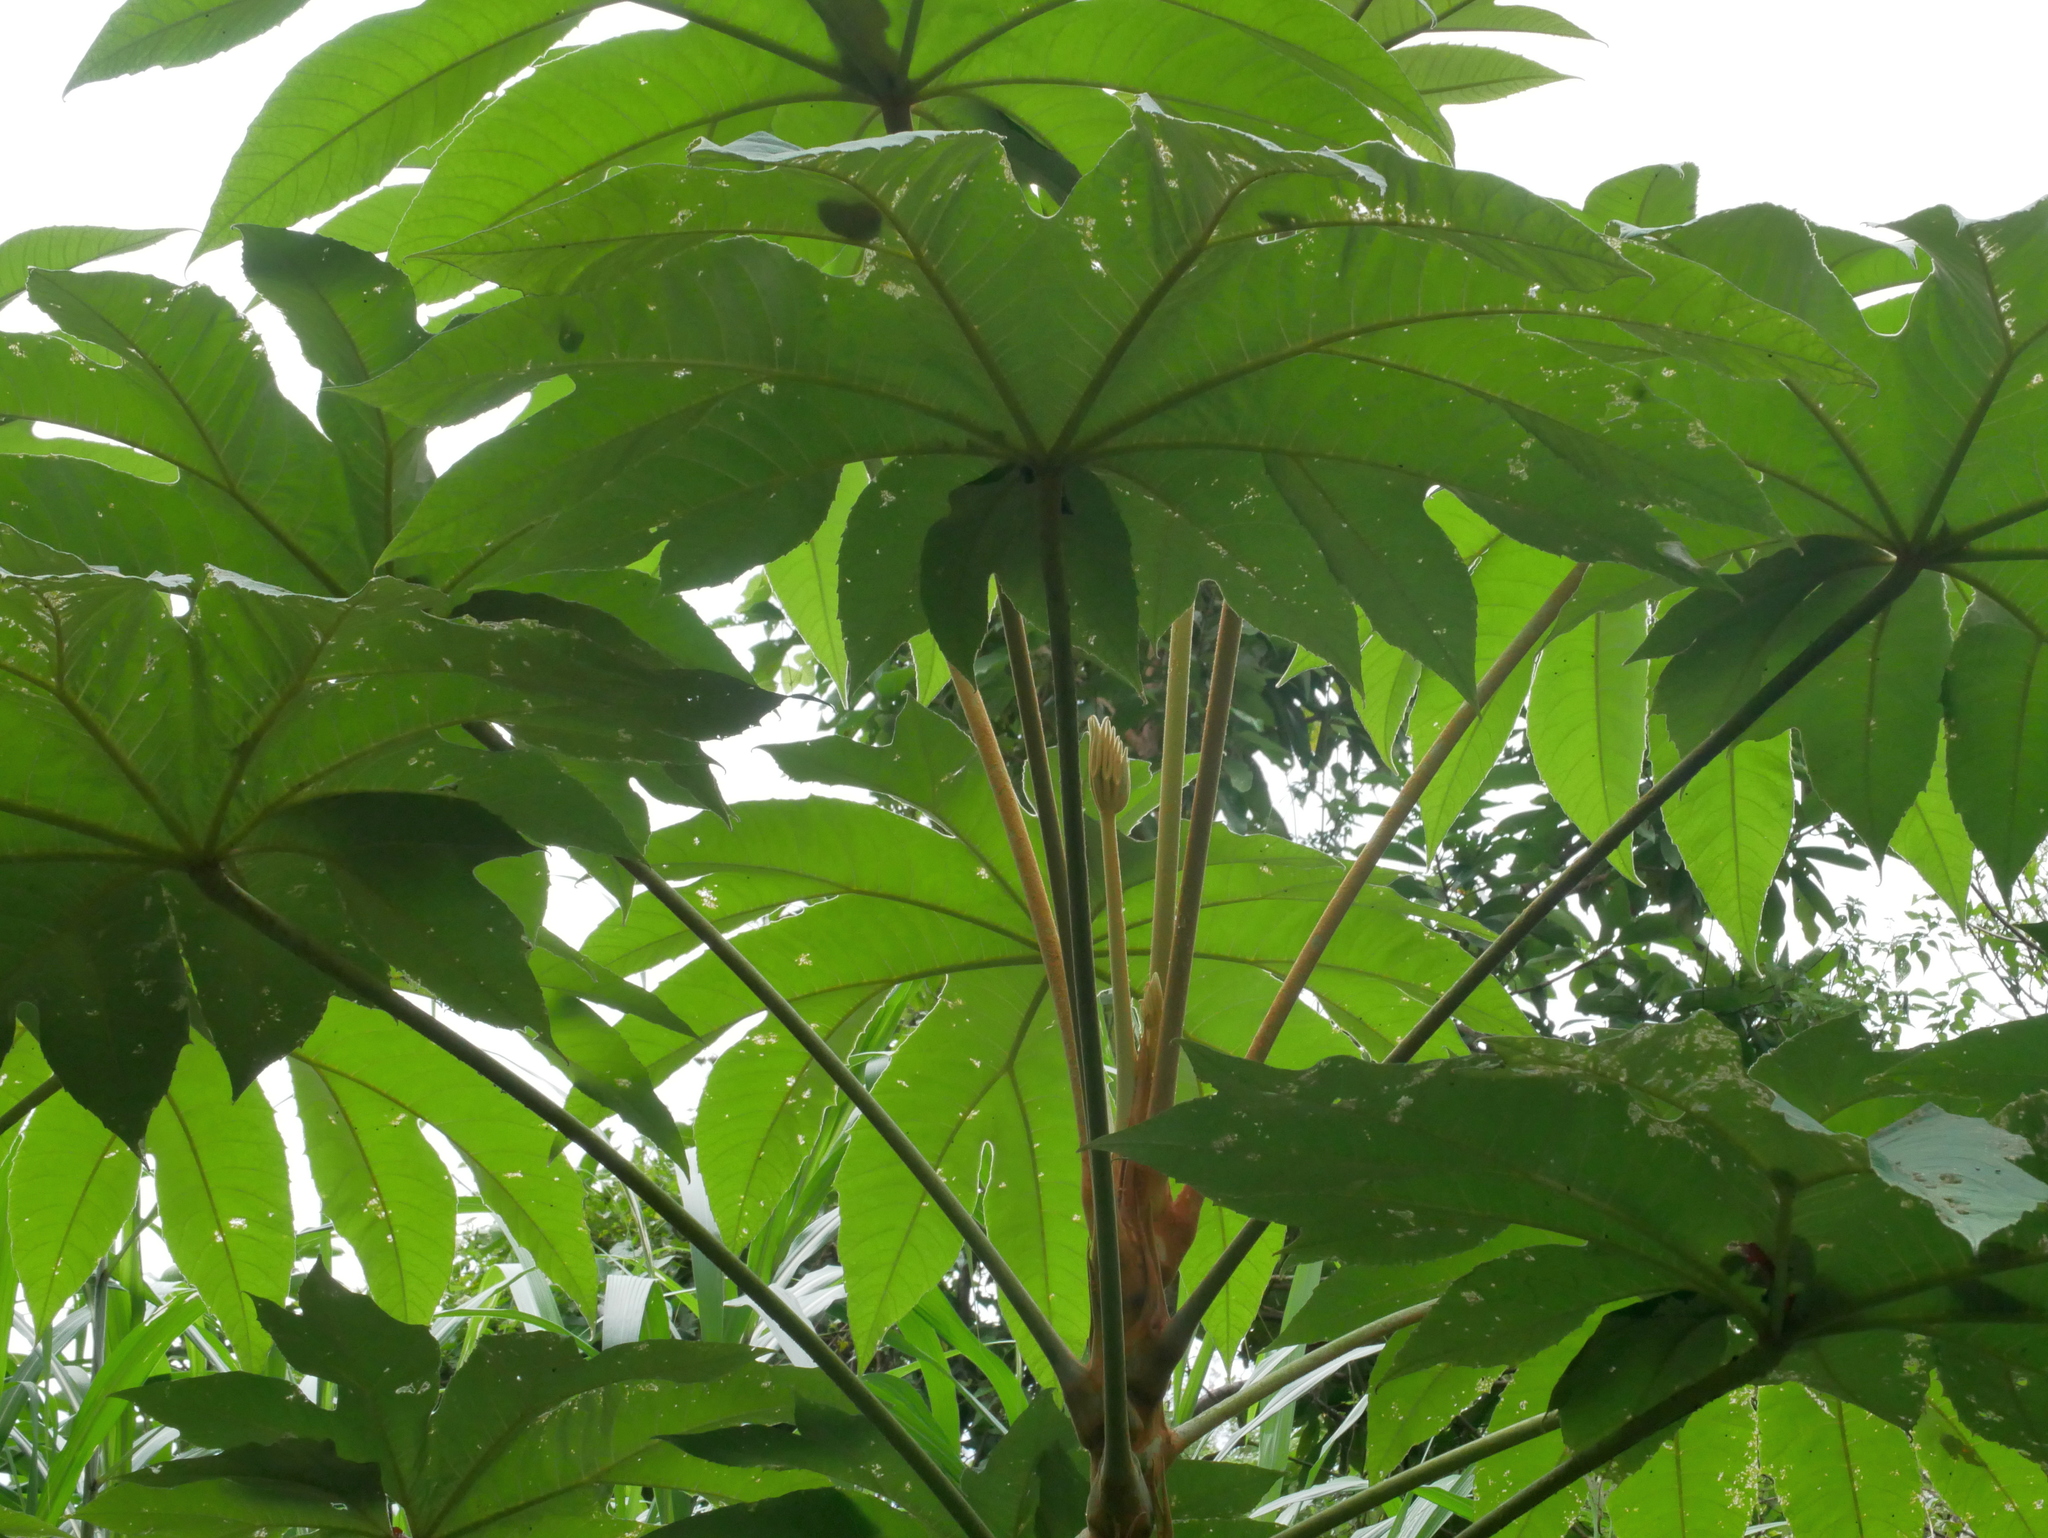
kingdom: Plantae
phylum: Tracheophyta
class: Magnoliopsida
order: Apiales
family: Araliaceae
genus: Tetrapanax
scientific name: Tetrapanax papyrifer
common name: Rice-paper plant
